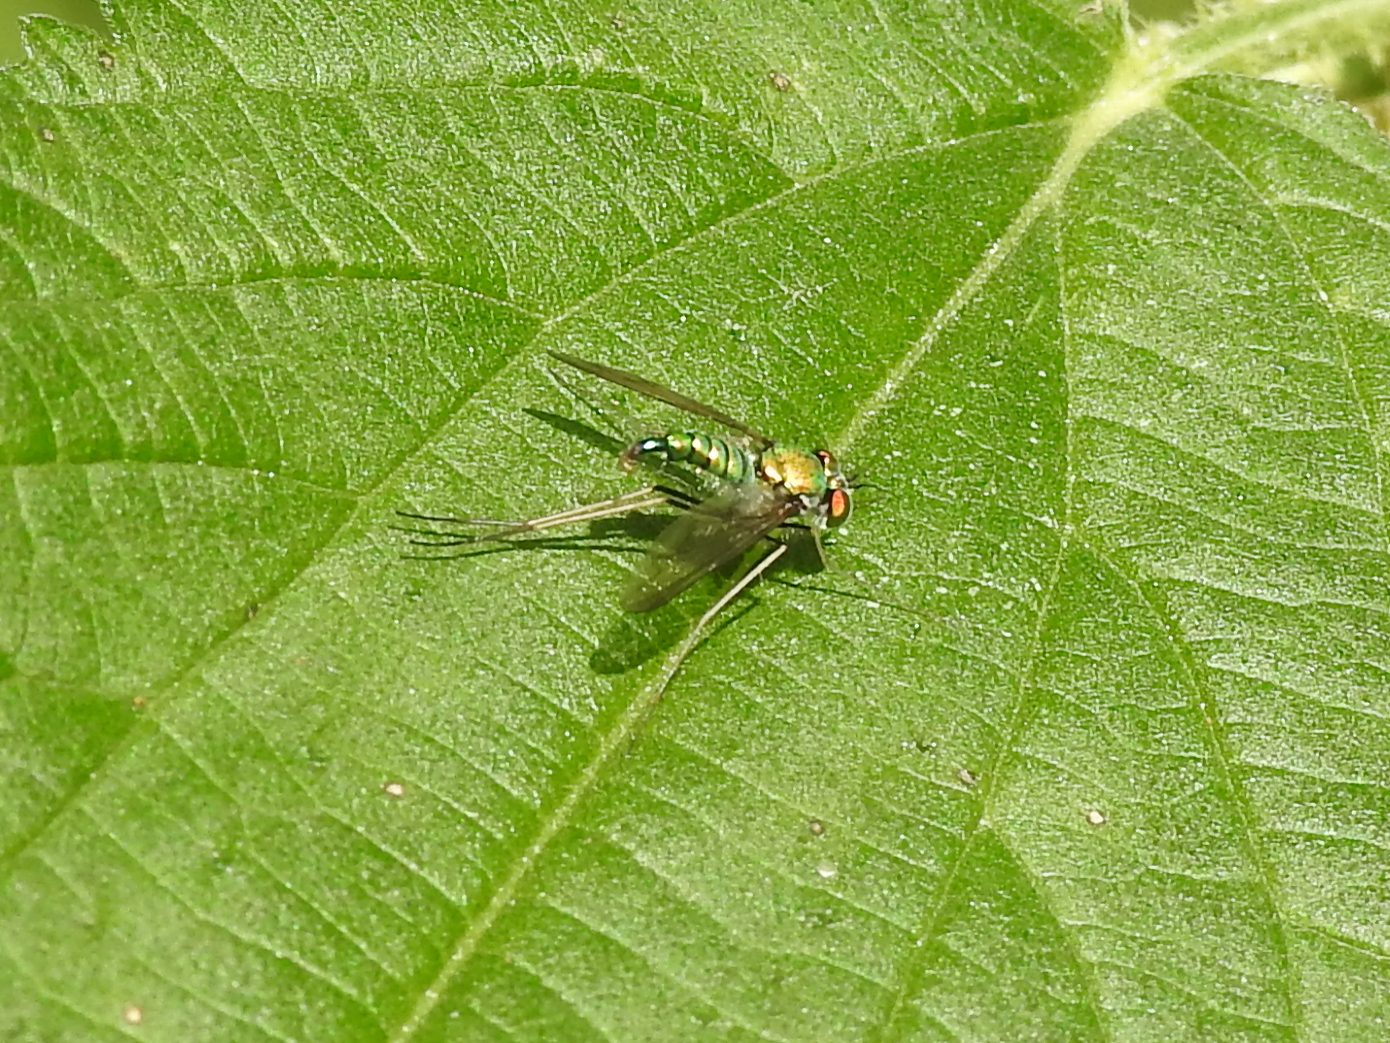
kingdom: Animalia
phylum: Arthropoda
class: Insecta
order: Diptera
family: Dolichopodidae
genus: Condylostylus
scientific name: Condylostylus comatus
